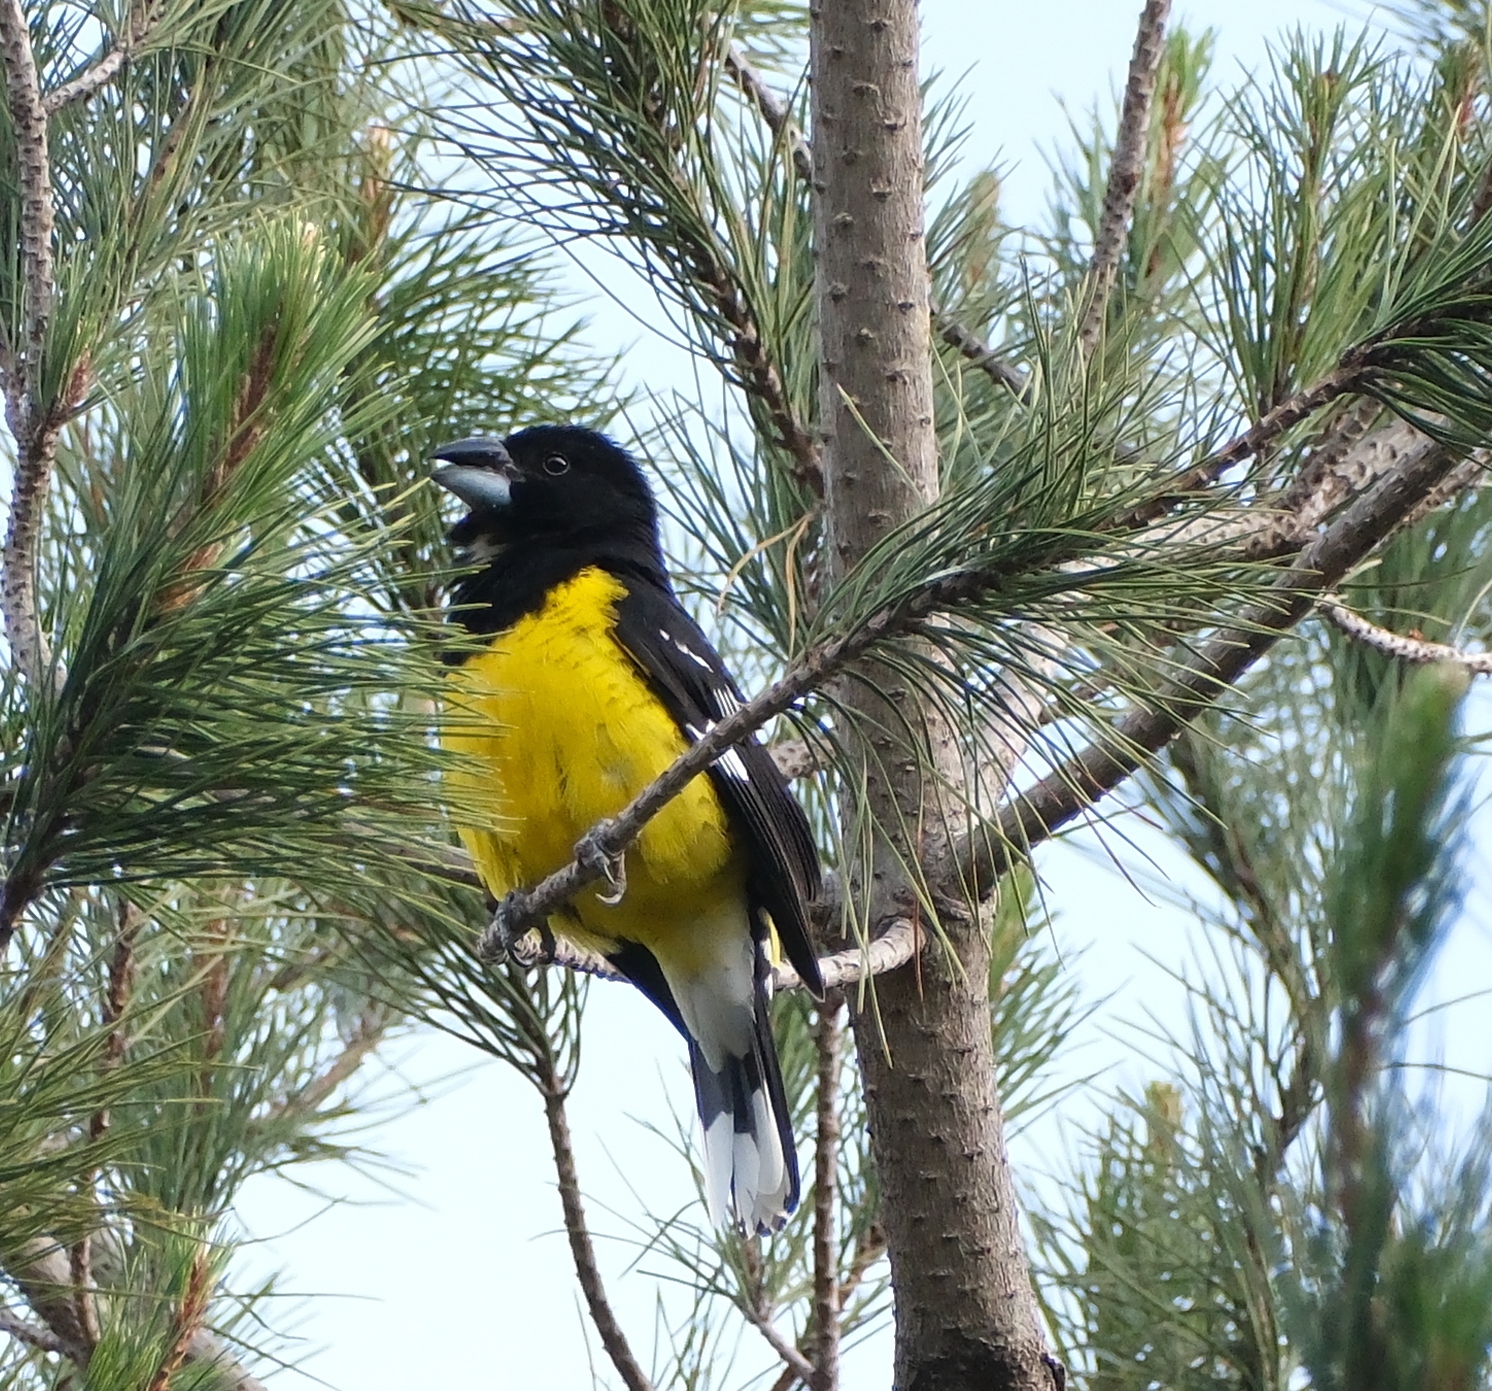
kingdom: Animalia
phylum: Chordata
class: Aves
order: Passeriformes
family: Cardinalidae
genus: Pheucticus
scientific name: Pheucticus aureoventris
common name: Black-backed grosbeak
